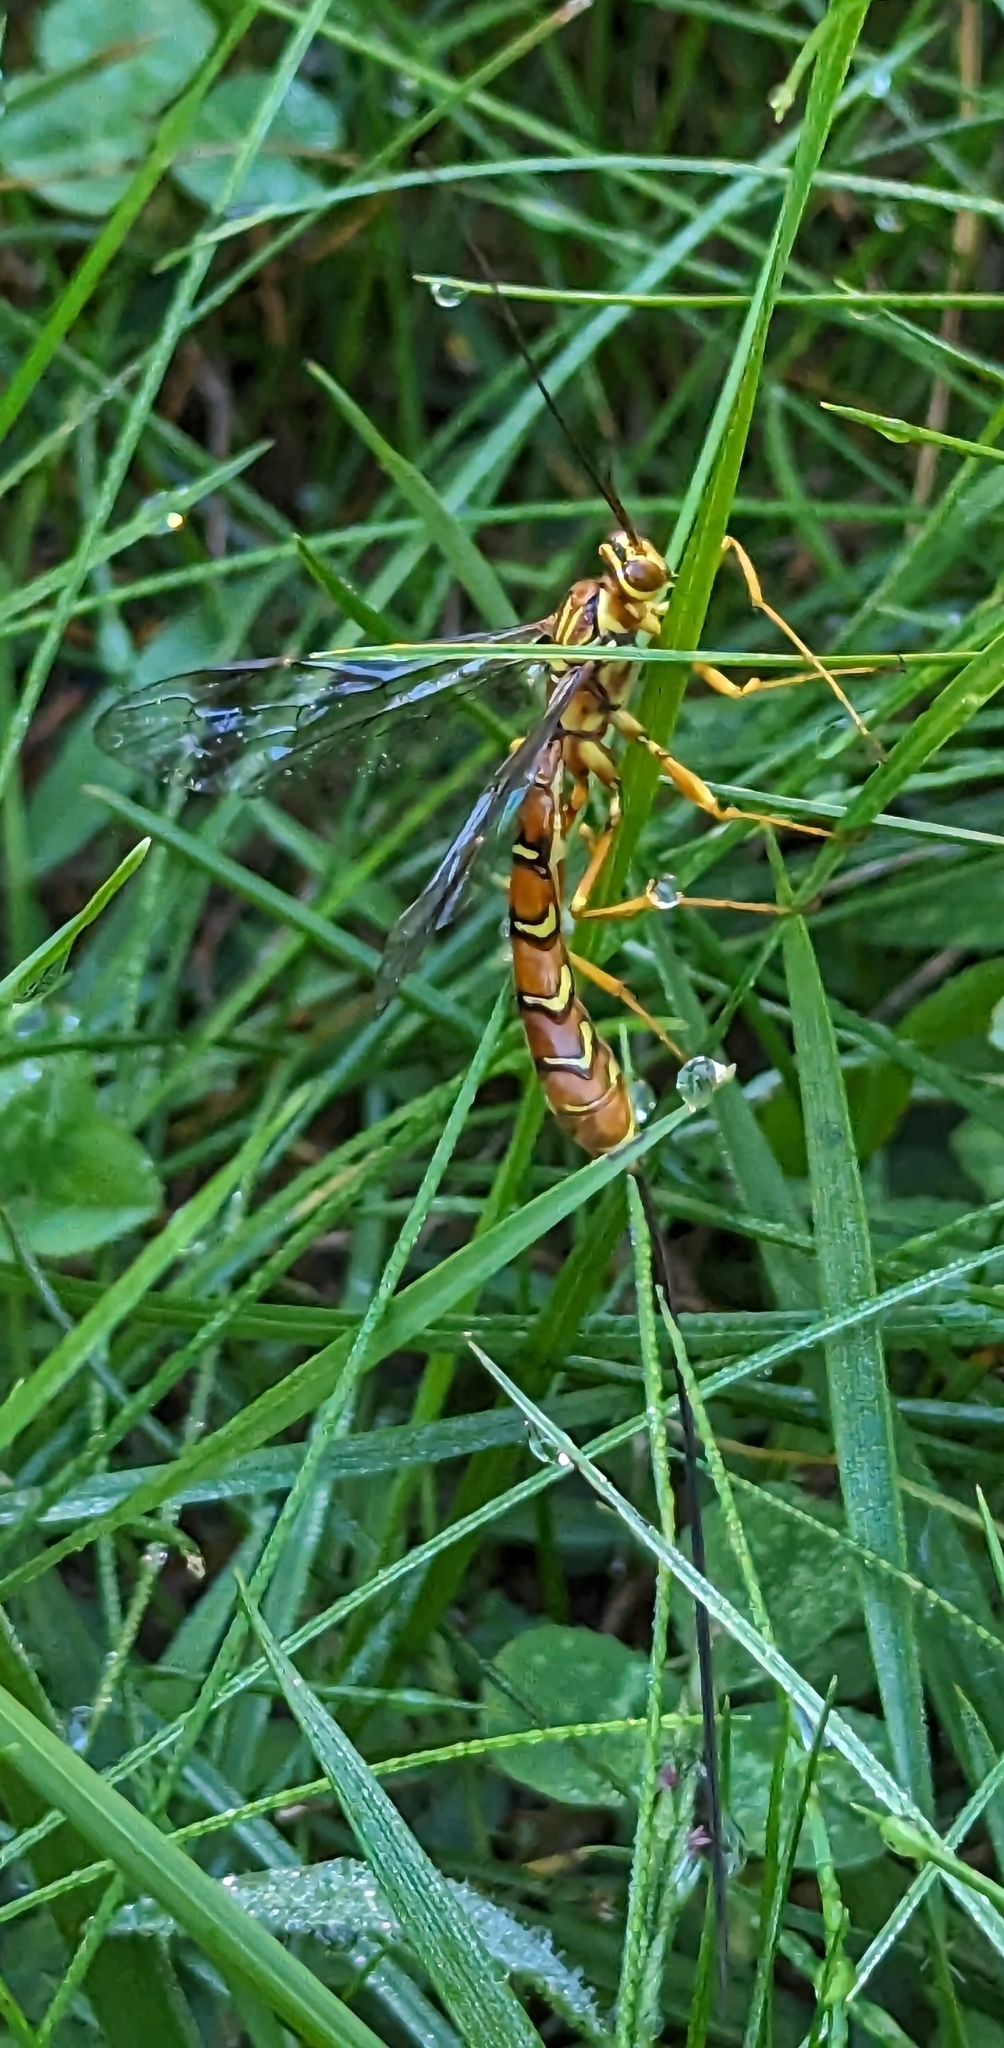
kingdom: Animalia
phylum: Arthropoda
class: Insecta
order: Hymenoptera
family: Ichneumonidae
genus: Megarhyssa
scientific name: Megarhyssa greenei
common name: Greene's giant ichneumonid wasp
